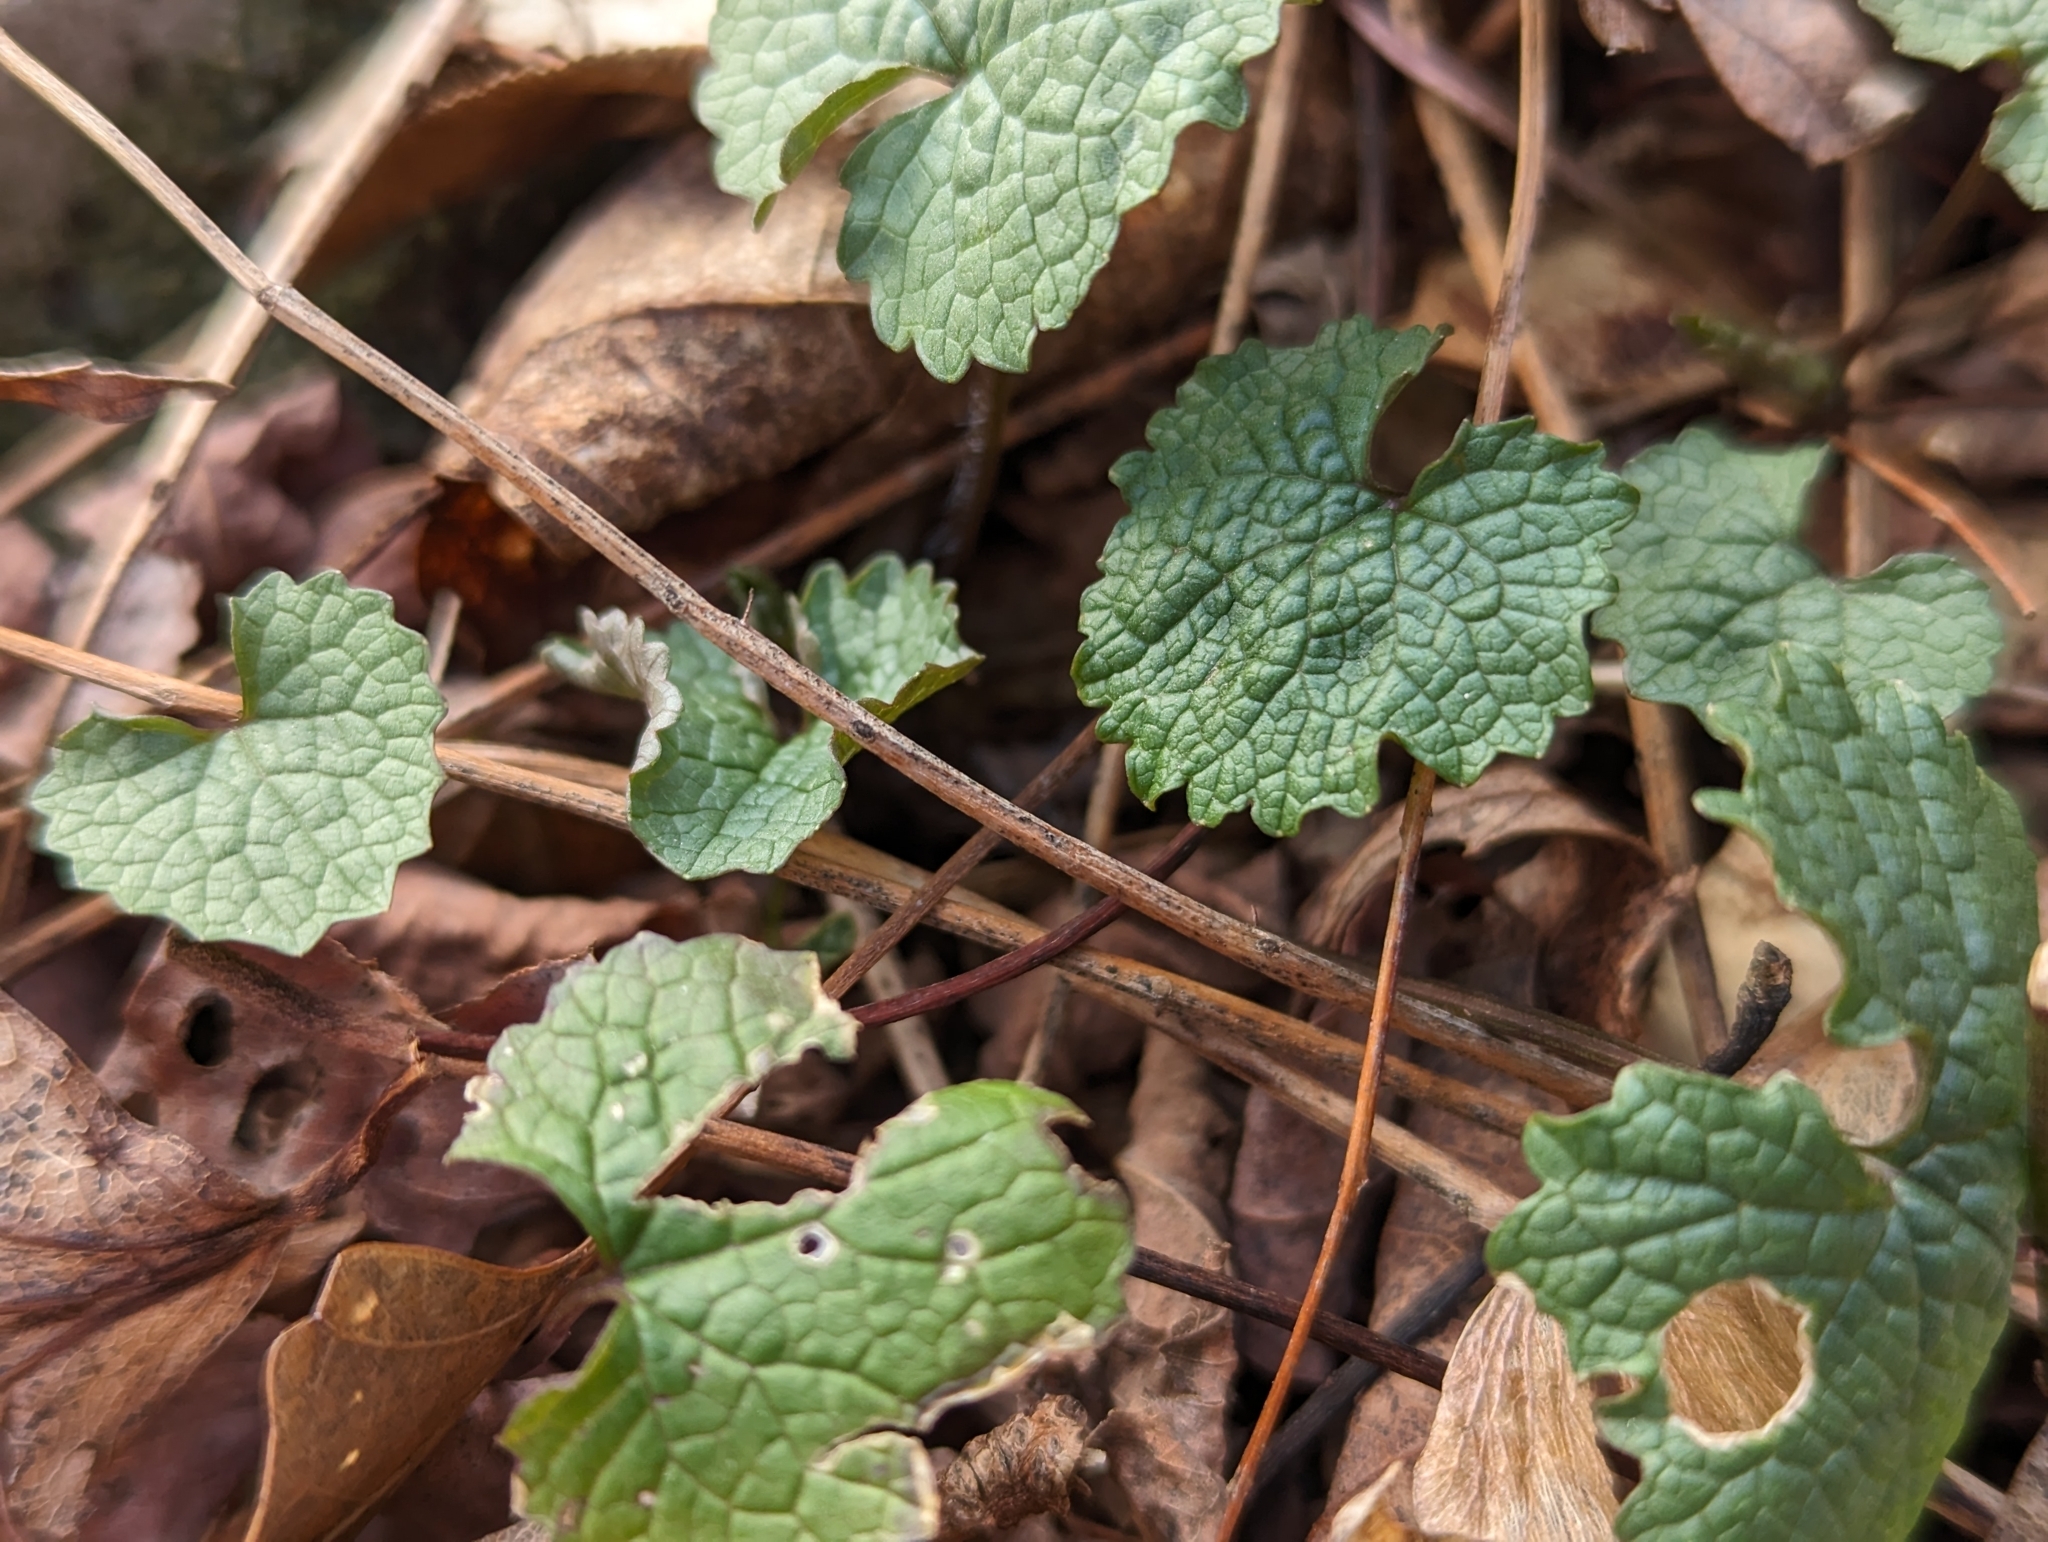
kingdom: Plantae
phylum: Tracheophyta
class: Magnoliopsida
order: Brassicales
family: Brassicaceae
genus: Alliaria
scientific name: Alliaria petiolata
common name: Garlic mustard
